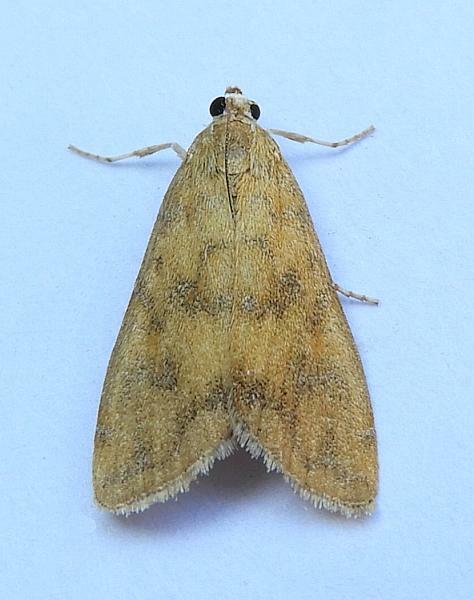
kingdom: Animalia
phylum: Arthropoda
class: Insecta
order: Lepidoptera
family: Crambidae
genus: Elophila
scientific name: Elophila gyralis
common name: Waterlily borer moth
